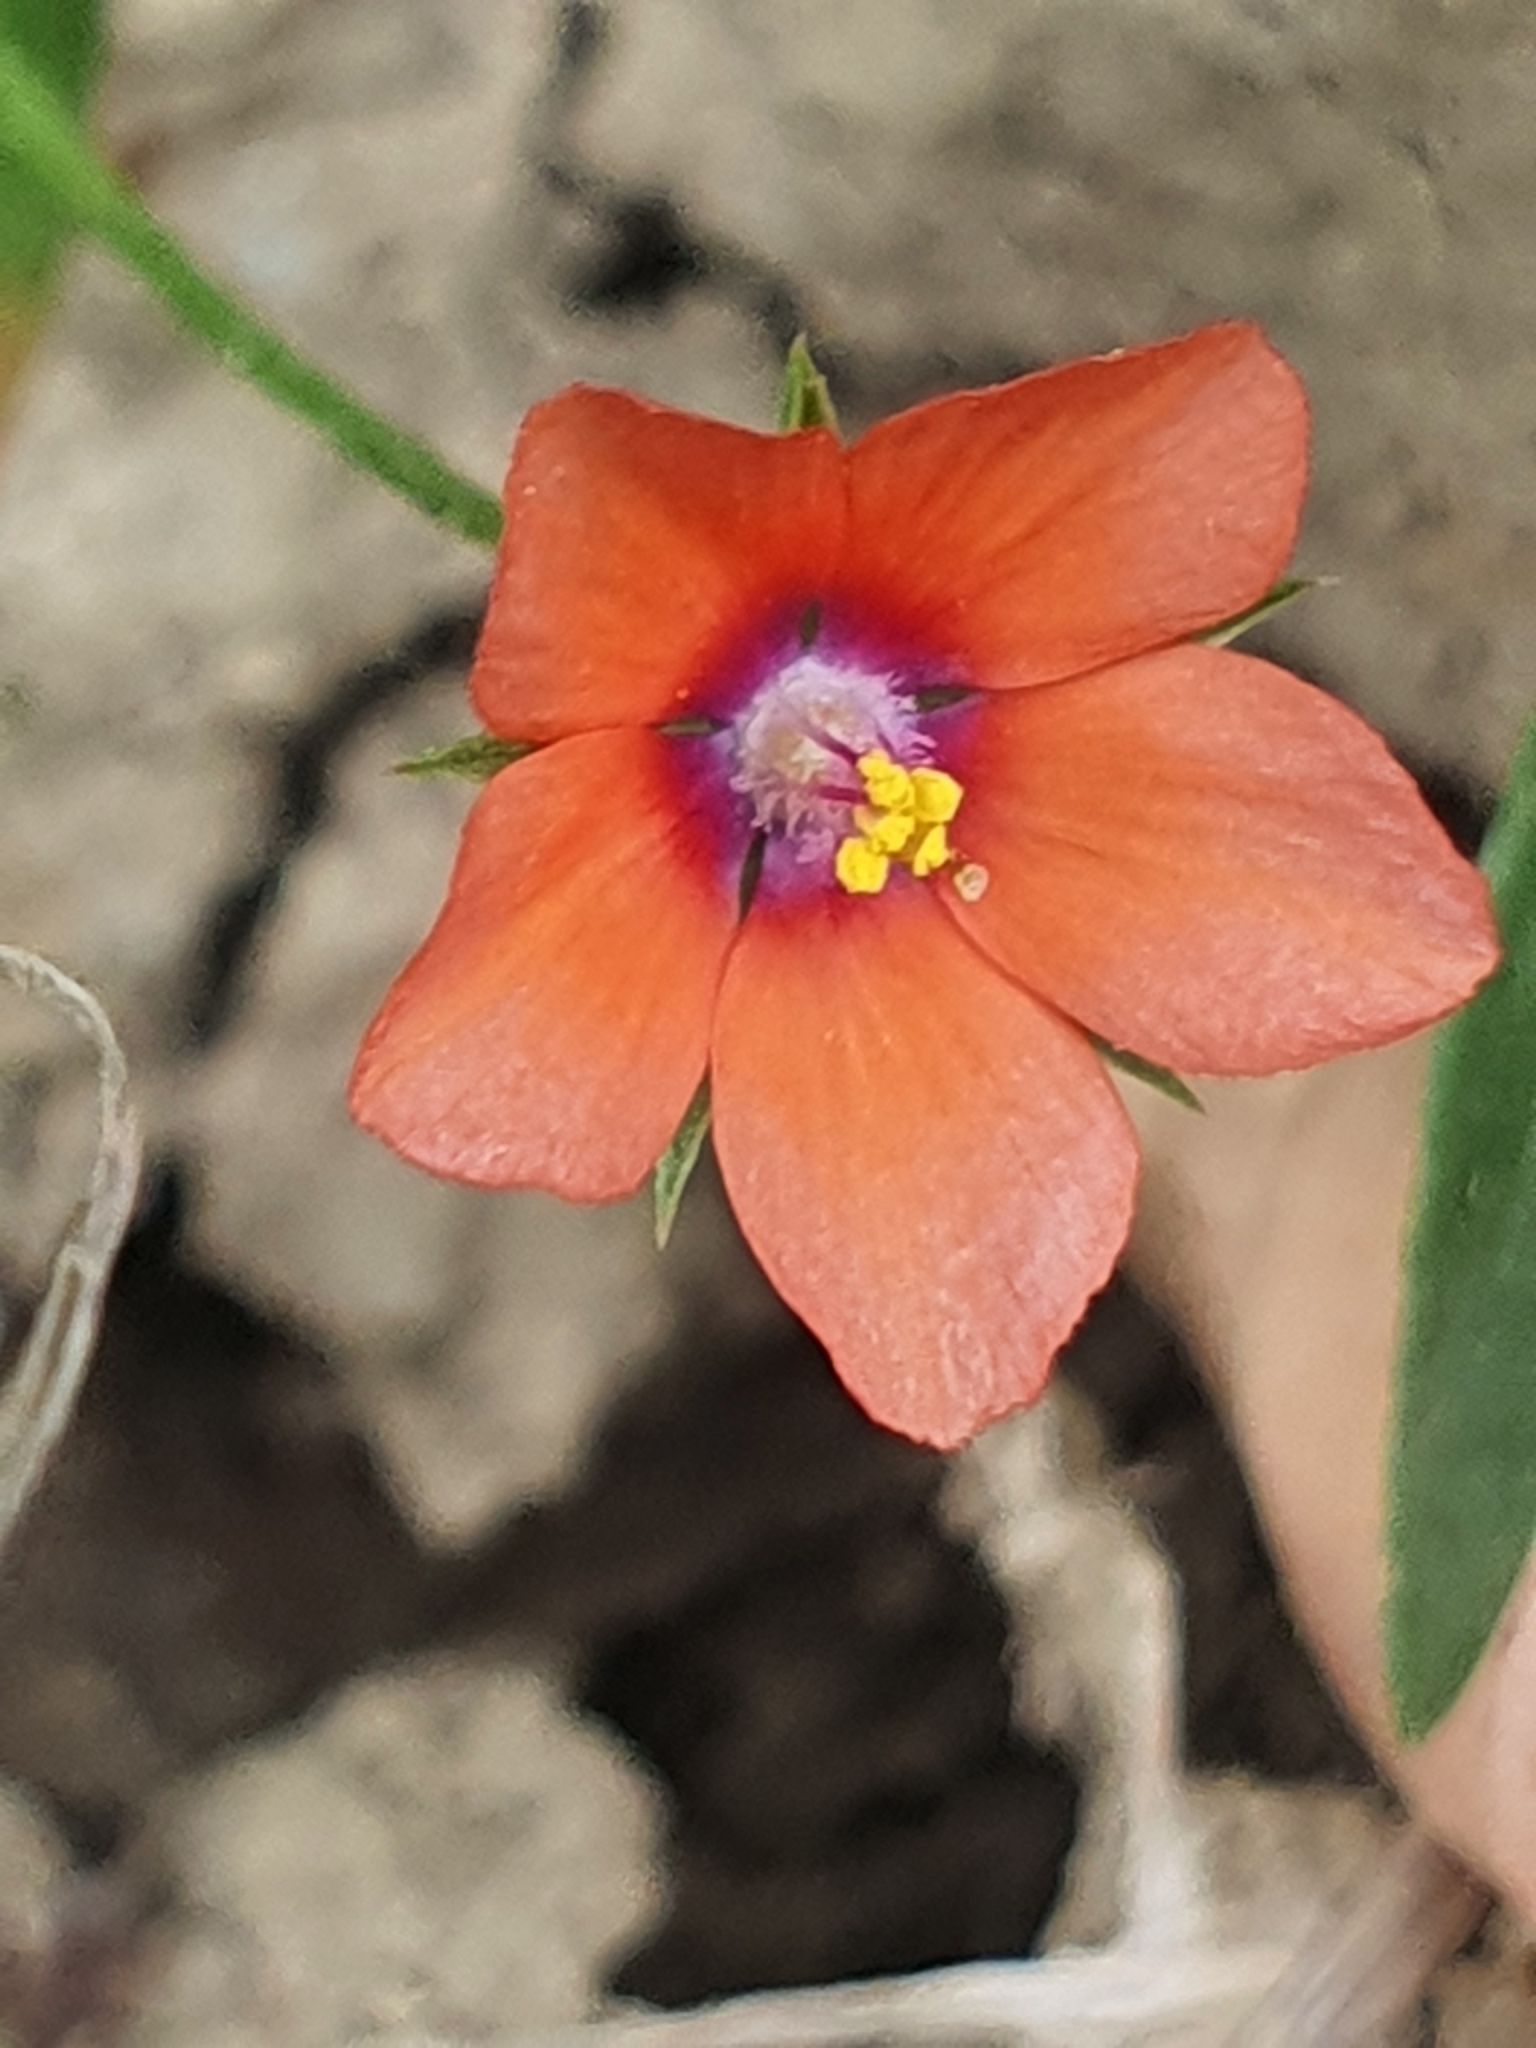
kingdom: Plantae
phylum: Tracheophyta
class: Magnoliopsida
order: Ericales
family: Primulaceae
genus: Lysimachia
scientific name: Lysimachia arvensis
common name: Scarlet pimpernel
